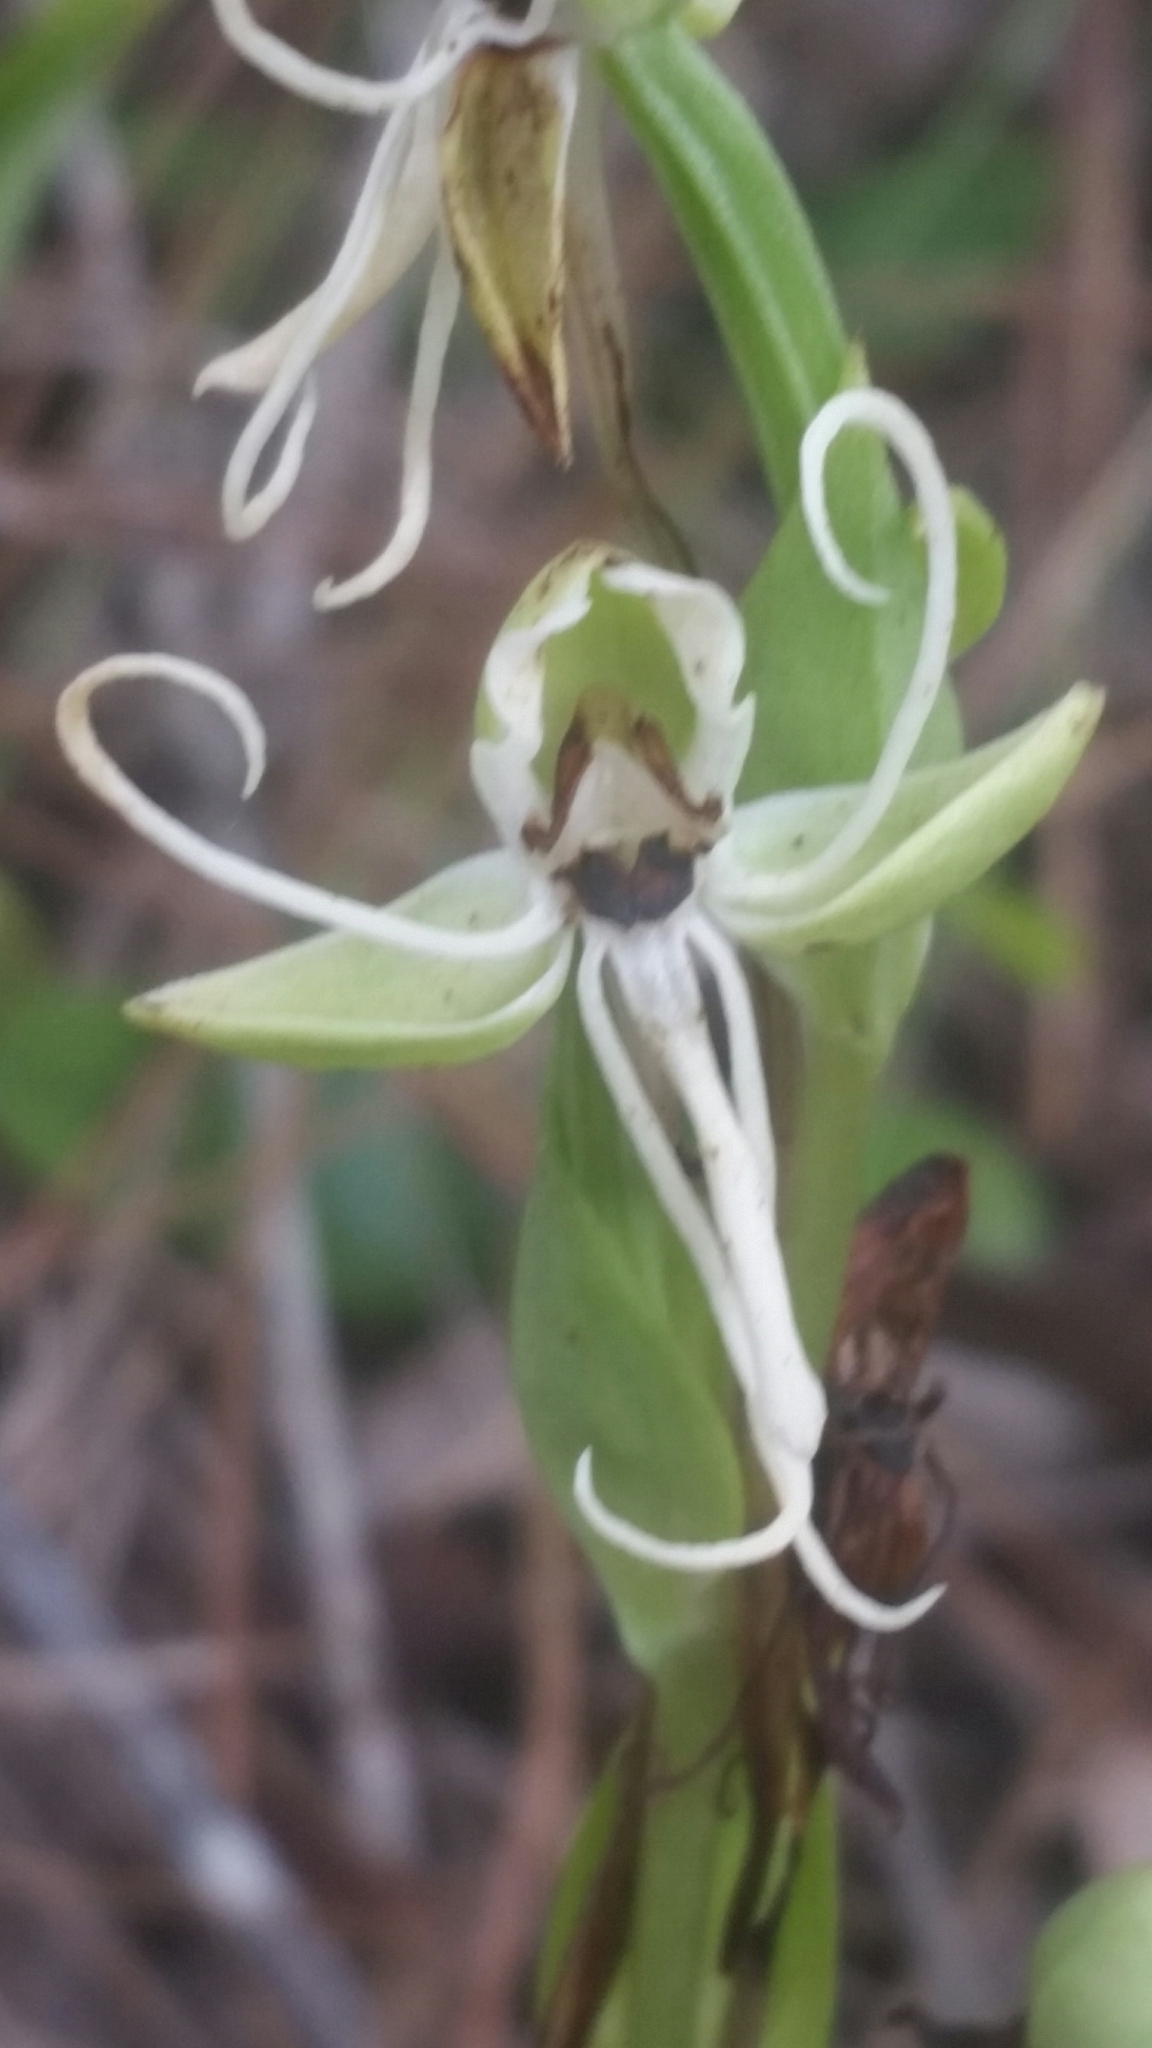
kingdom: Plantae
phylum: Tracheophyta
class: Liliopsida
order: Asparagales
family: Orchidaceae
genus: Habenaria
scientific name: Habenaria quinqueseta
